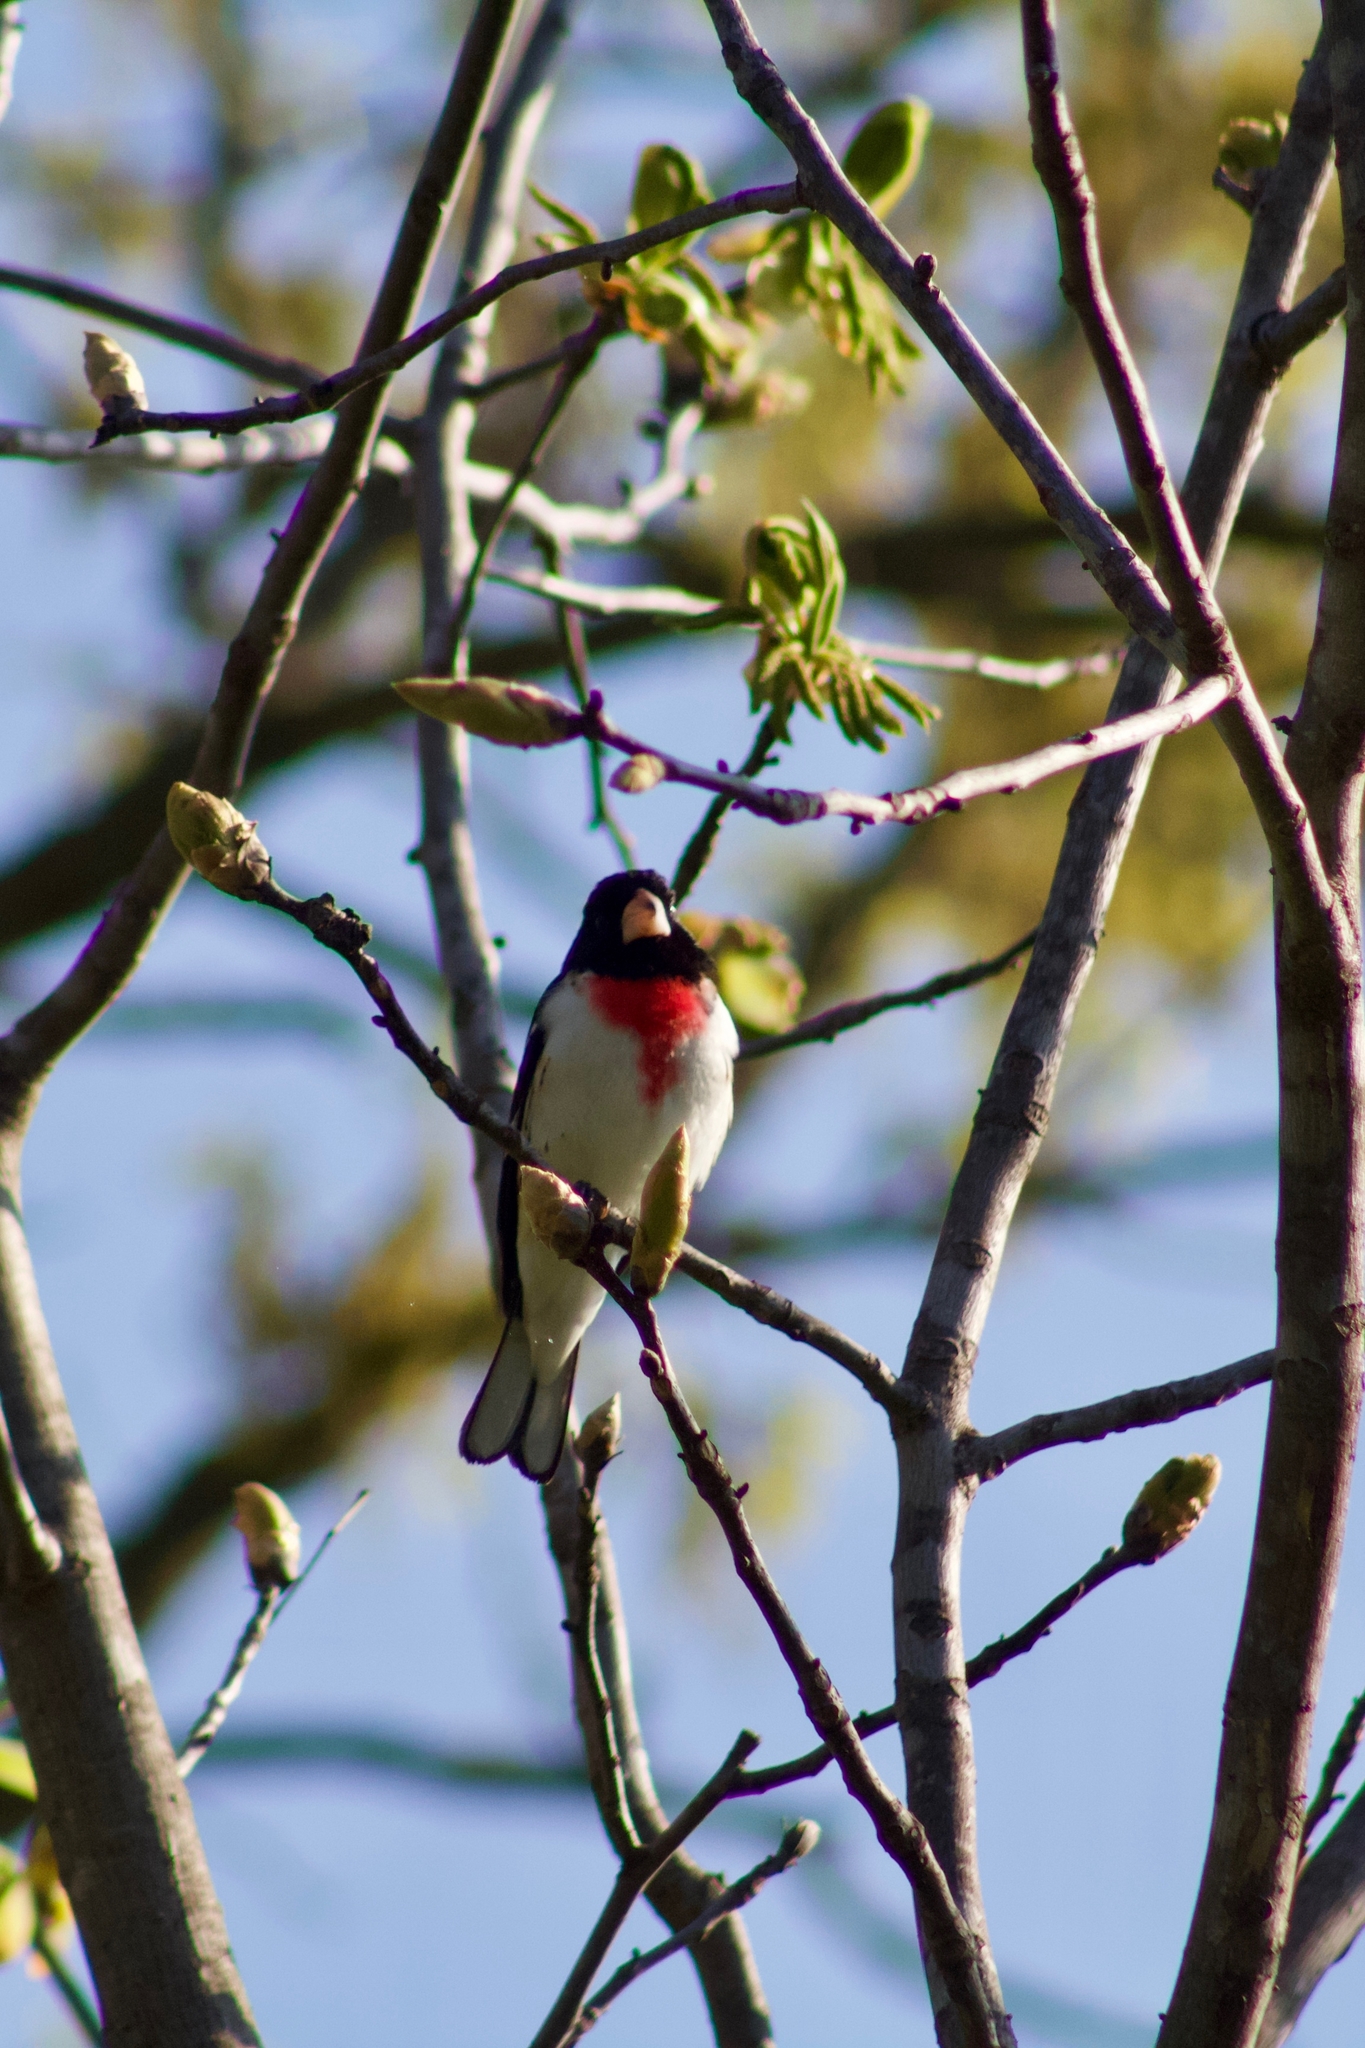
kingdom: Animalia
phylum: Chordata
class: Aves
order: Passeriformes
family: Cardinalidae
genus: Pheucticus
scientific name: Pheucticus ludovicianus
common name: Rose-breasted grosbeak
